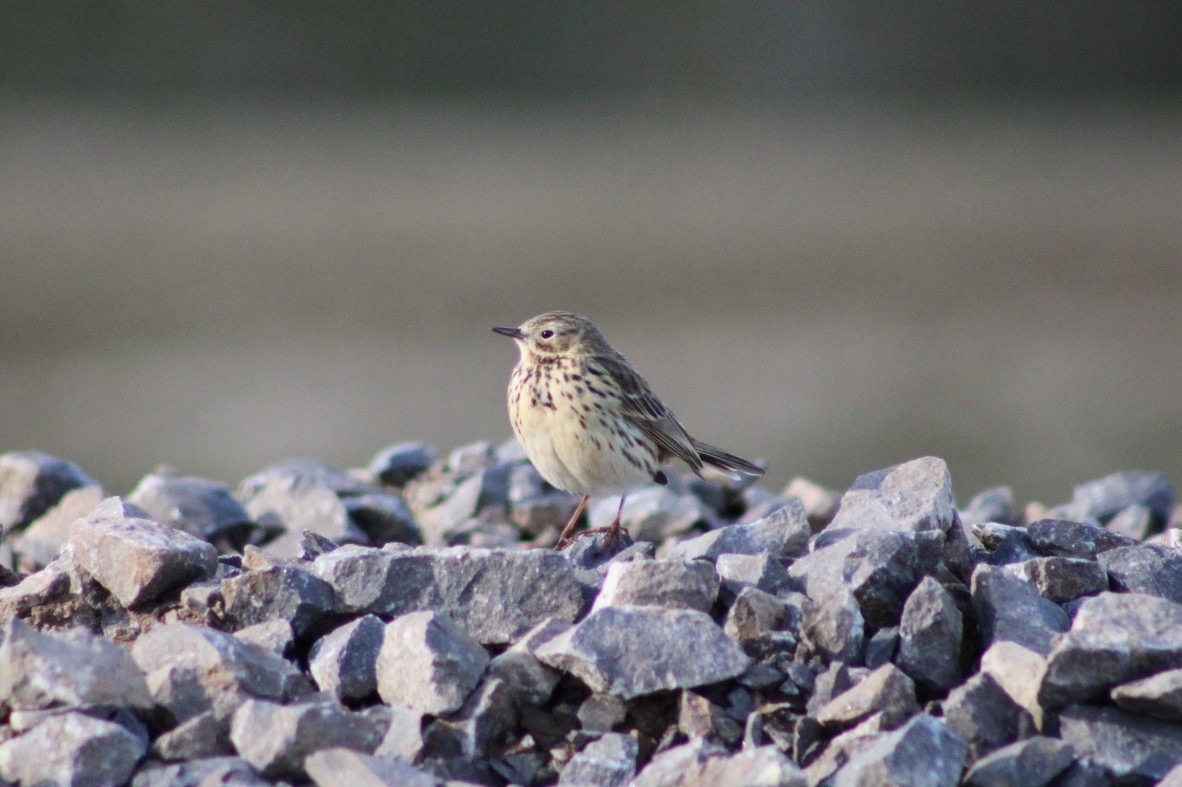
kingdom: Animalia
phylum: Chordata
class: Aves
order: Passeriformes
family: Motacillidae
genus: Anthus
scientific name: Anthus pratensis
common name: Meadow pipit
